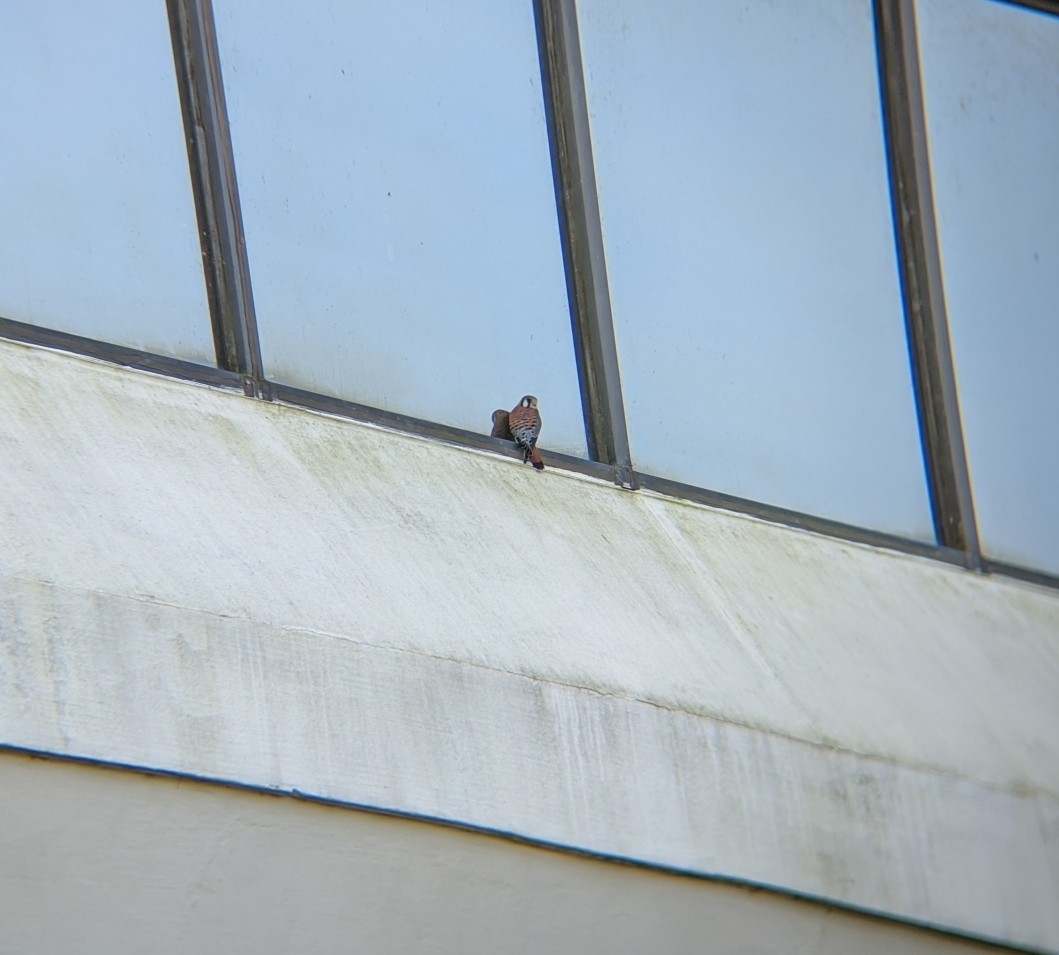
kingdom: Animalia
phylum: Chordata
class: Aves
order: Falconiformes
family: Falconidae
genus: Falco
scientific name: Falco sparverius
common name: American kestrel
